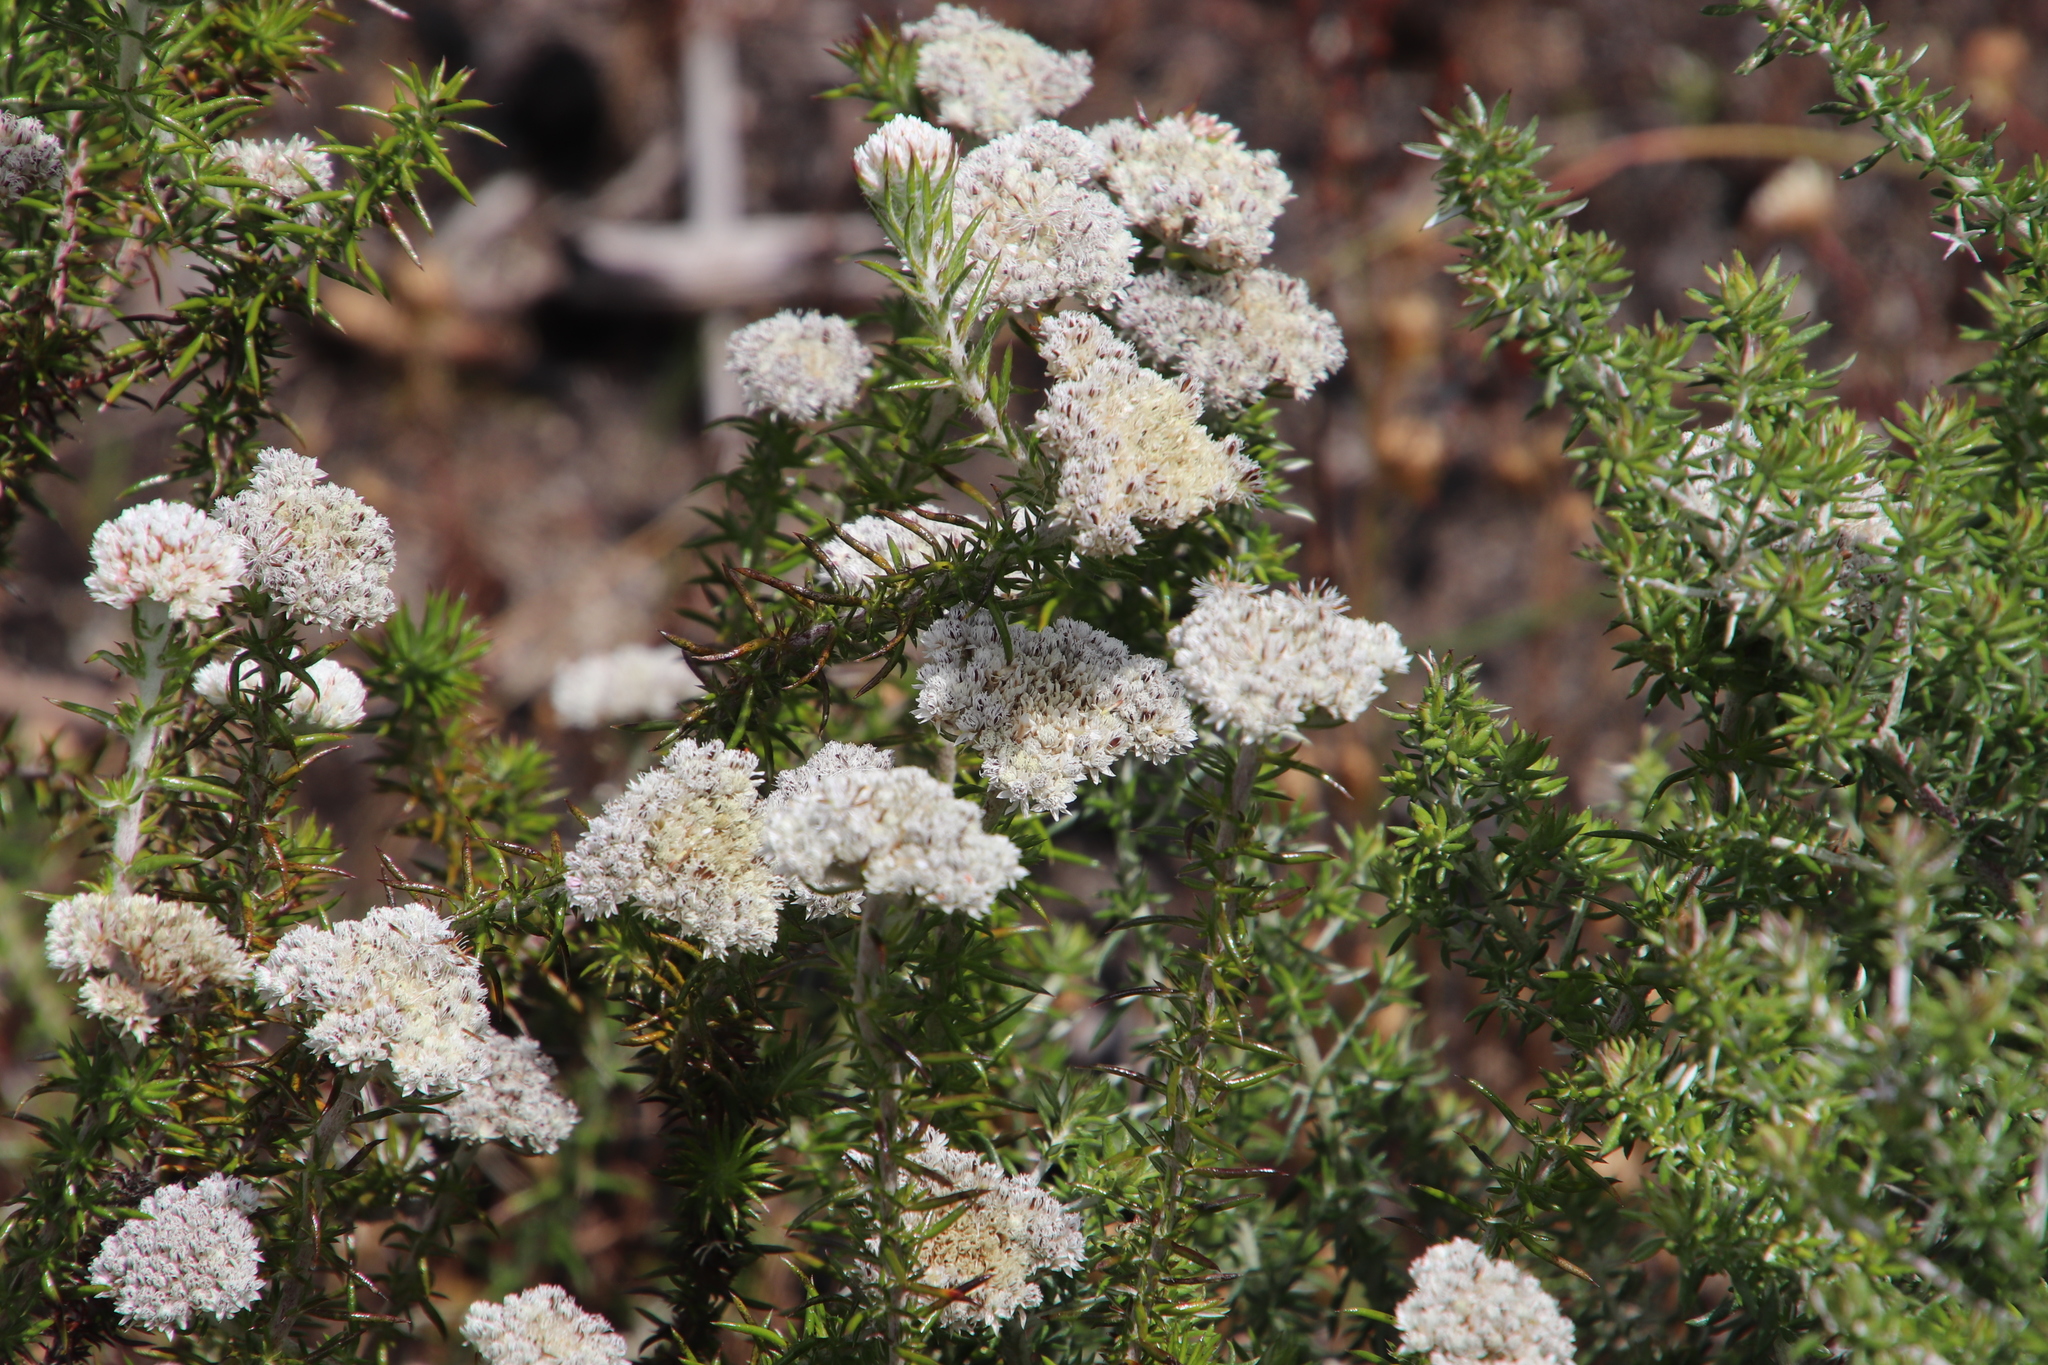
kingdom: Plantae
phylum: Tracheophyta
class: Magnoliopsida
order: Asterales
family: Asteraceae
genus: Metalasia
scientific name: Metalasia pulchella
